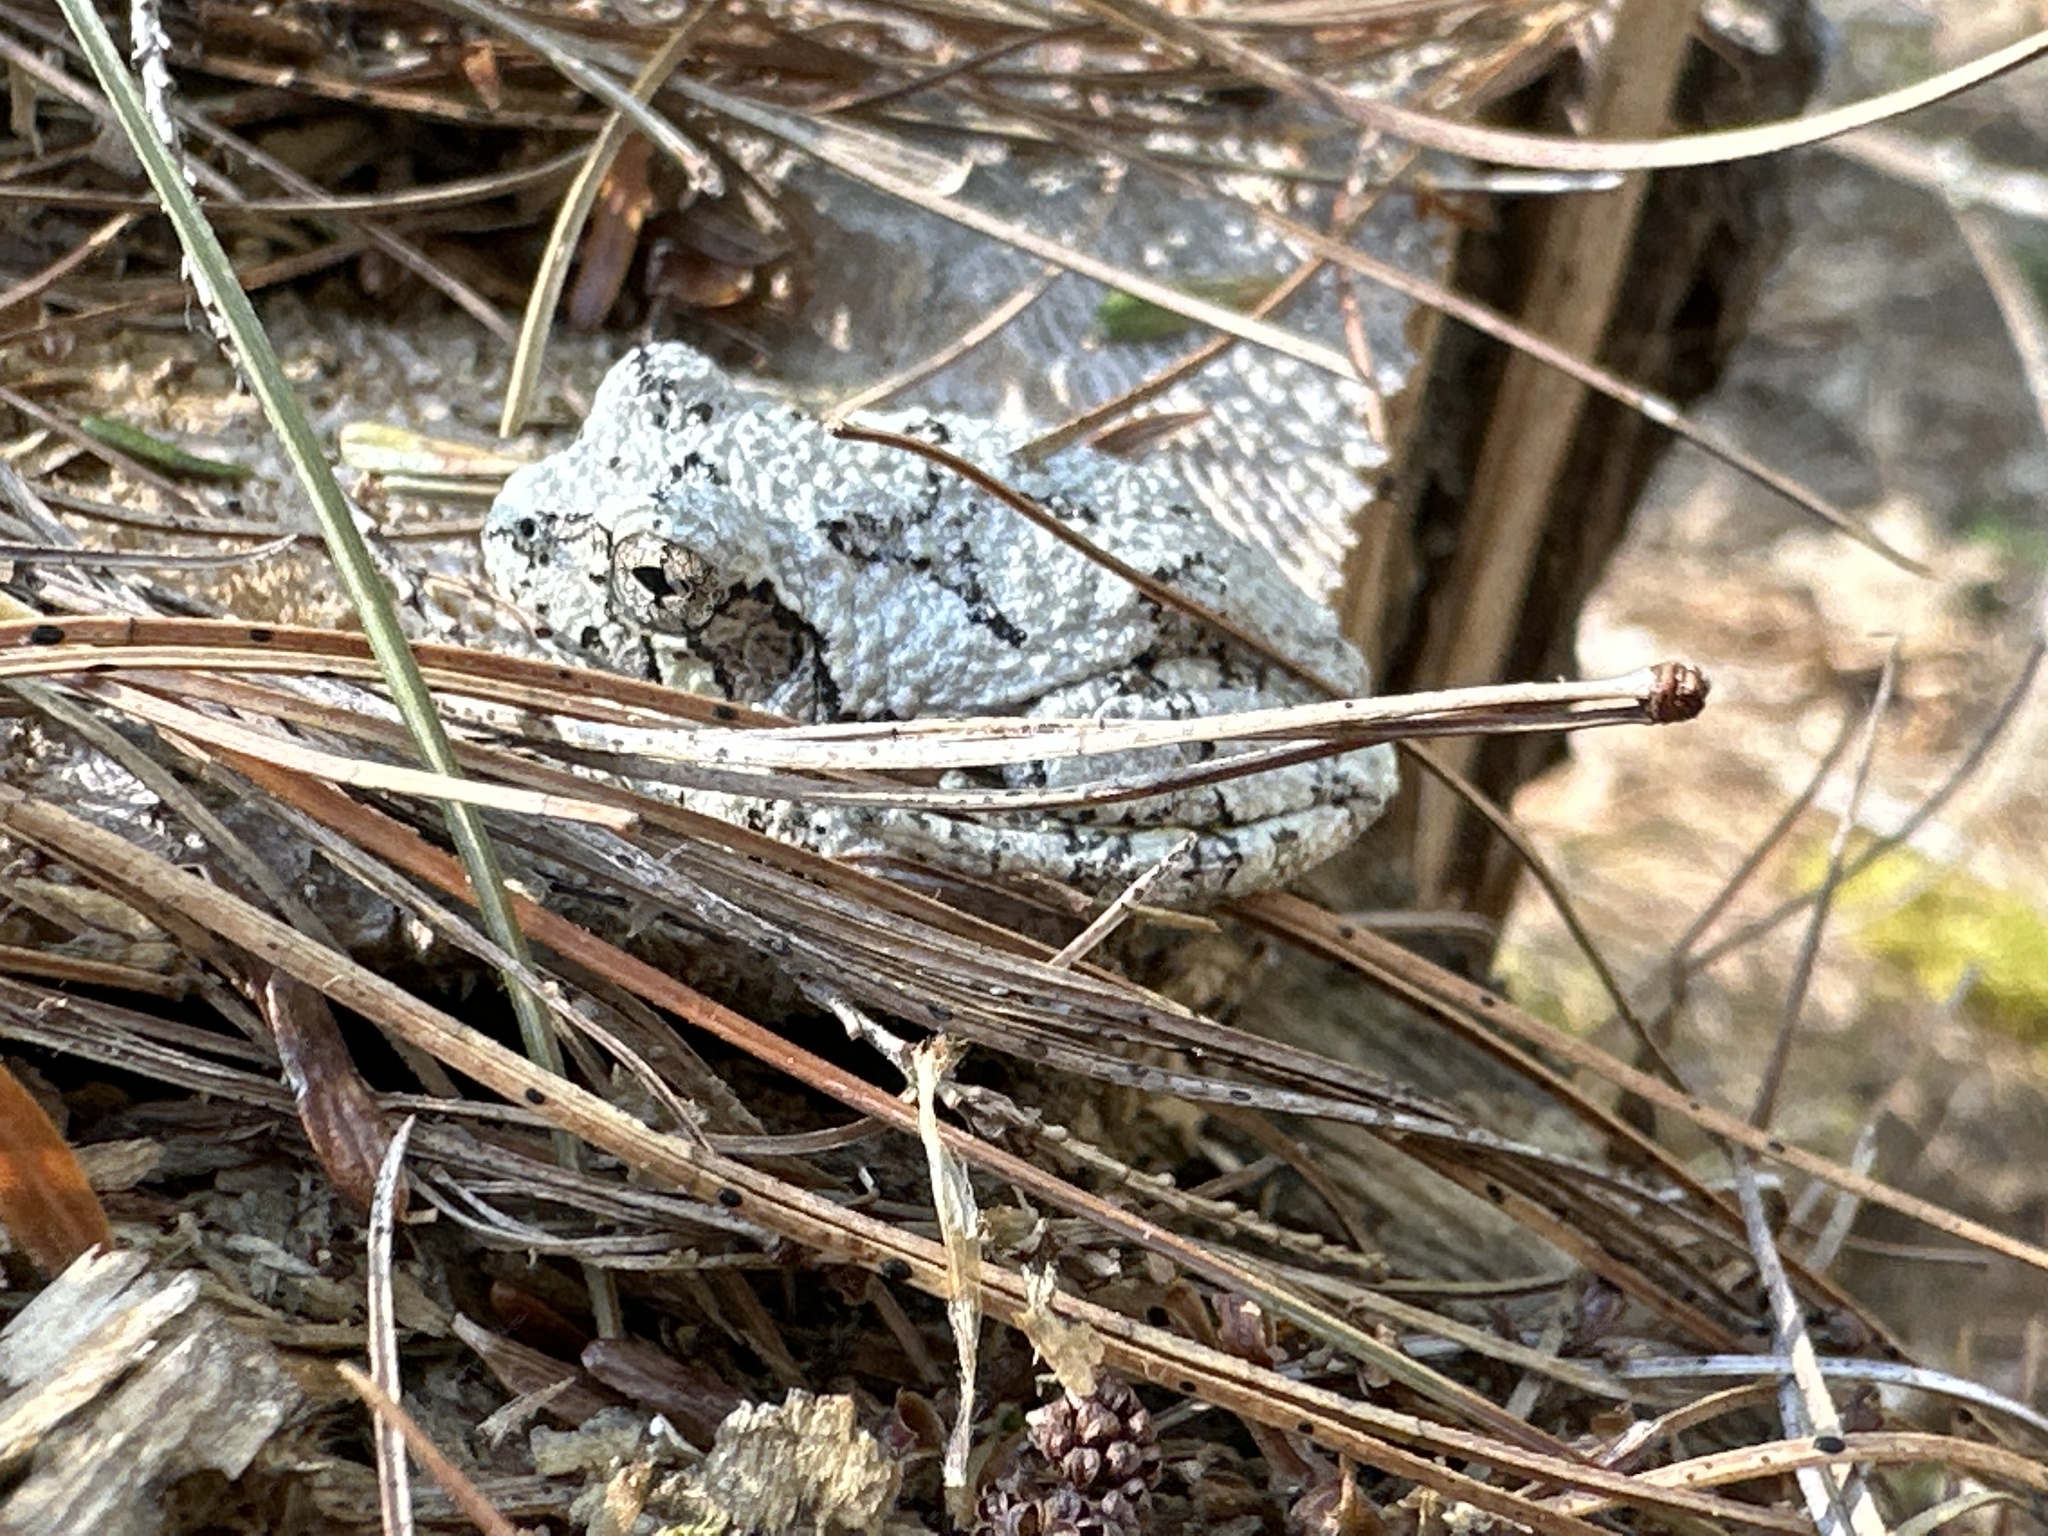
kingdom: Animalia
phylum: Chordata
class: Amphibia
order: Anura
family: Hylidae
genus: Dryophytes
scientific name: Dryophytes versicolor
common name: Gray treefrog
